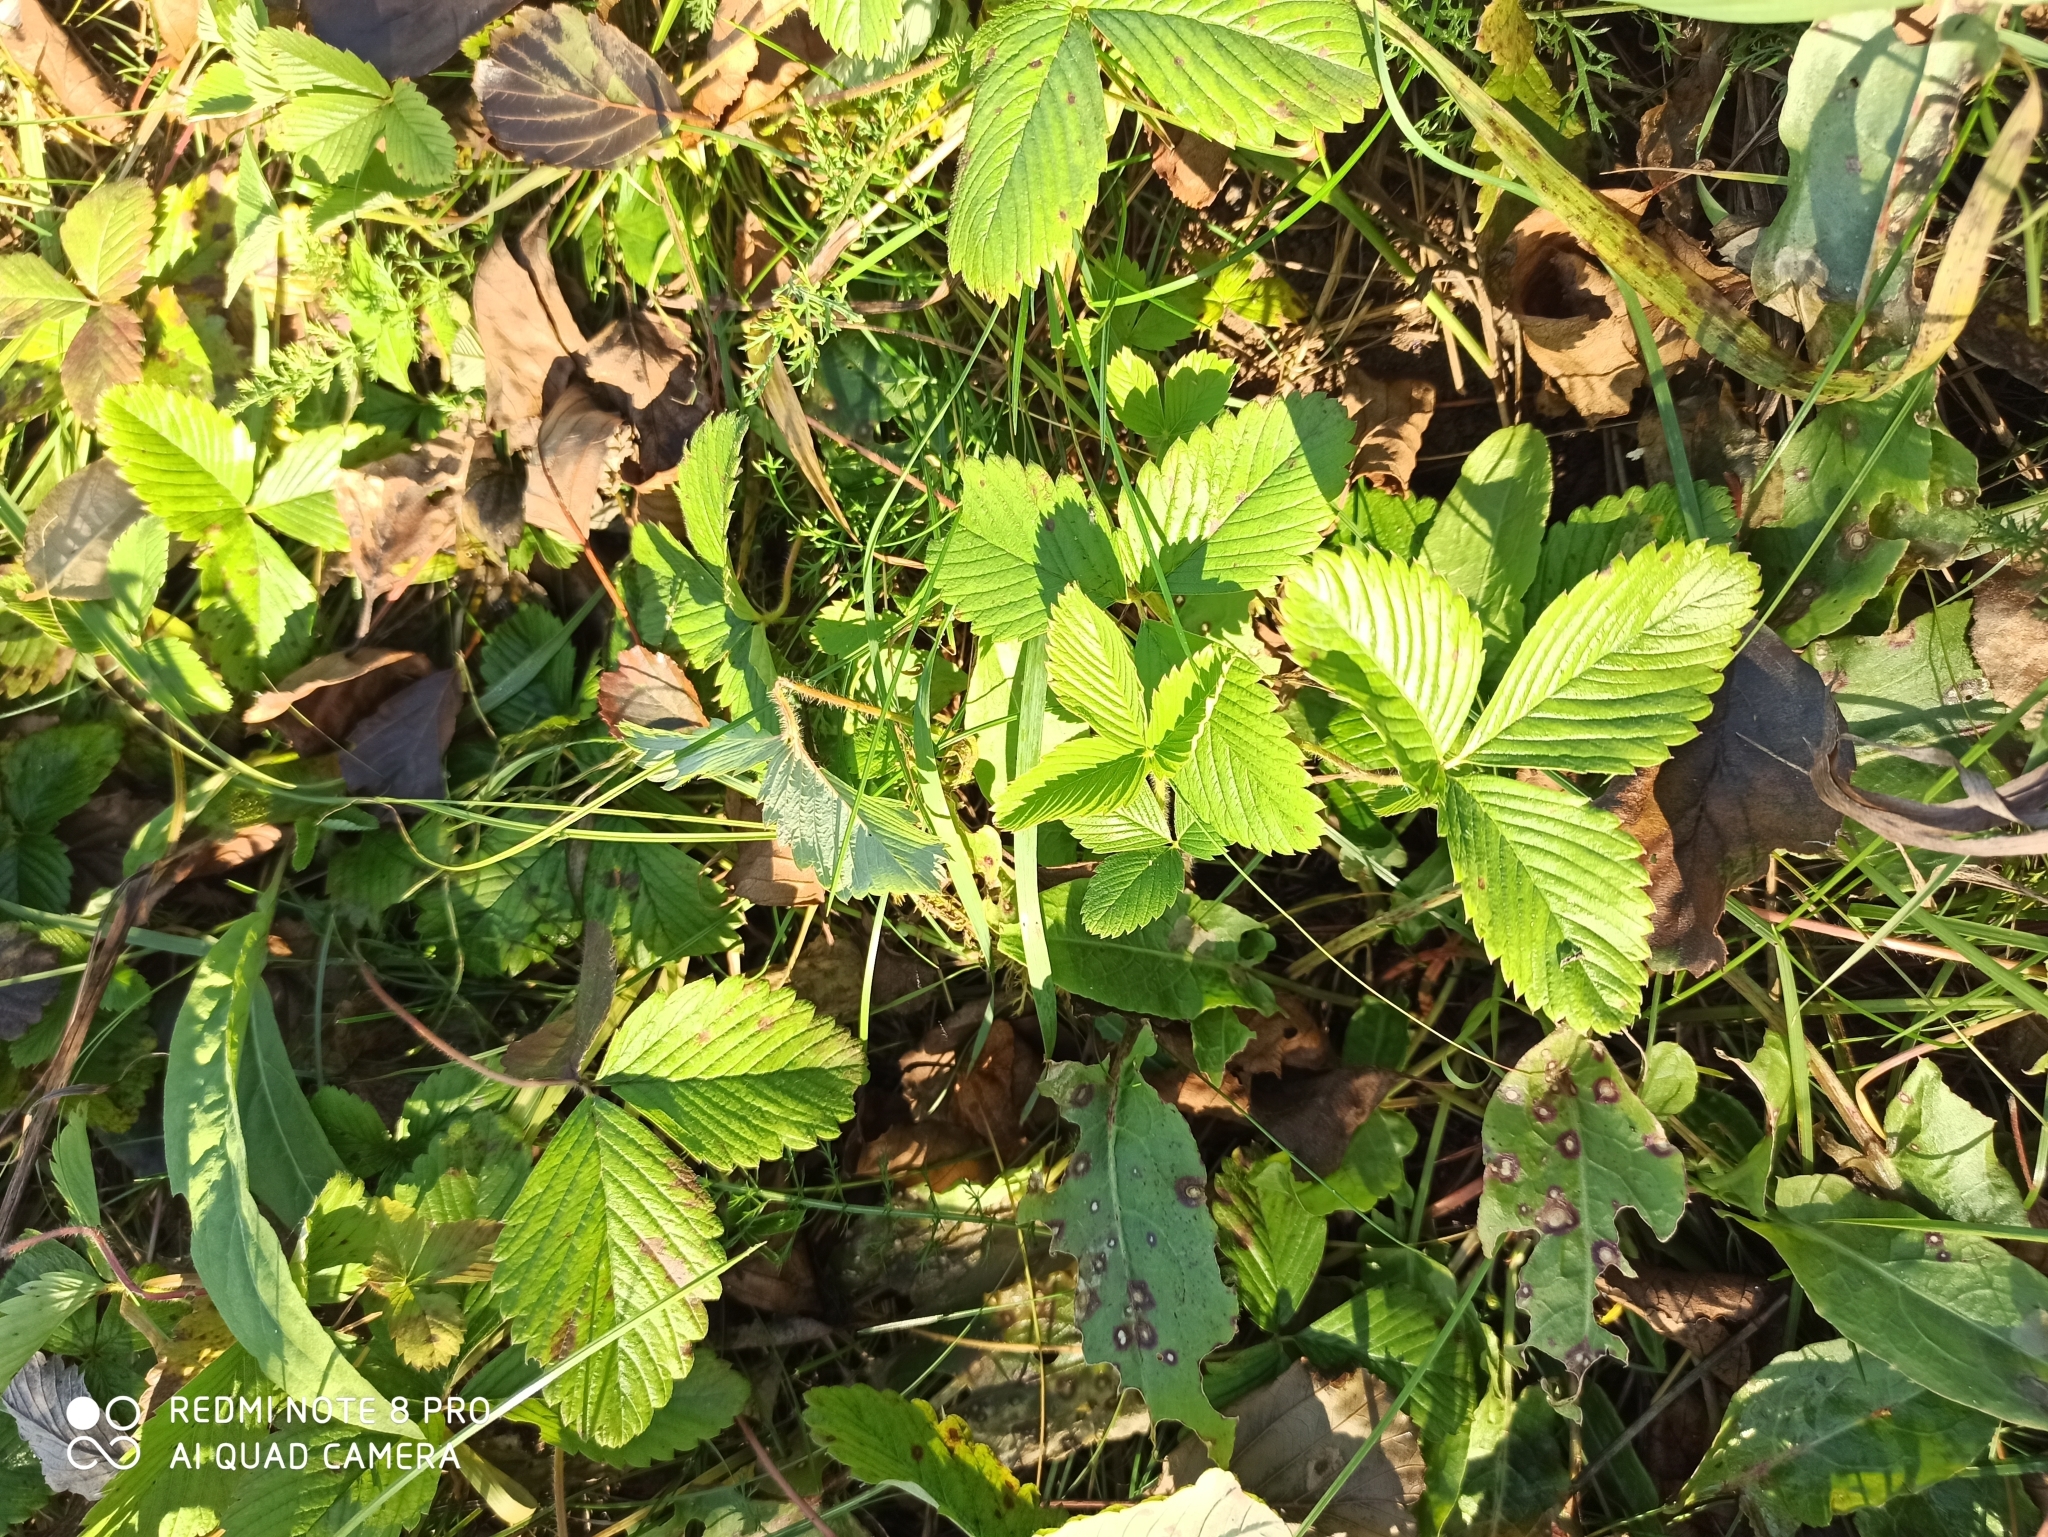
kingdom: Plantae
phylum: Tracheophyta
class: Magnoliopsida
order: Rosales
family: Rosaceae
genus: Fragaria
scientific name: Fragaria viridis
